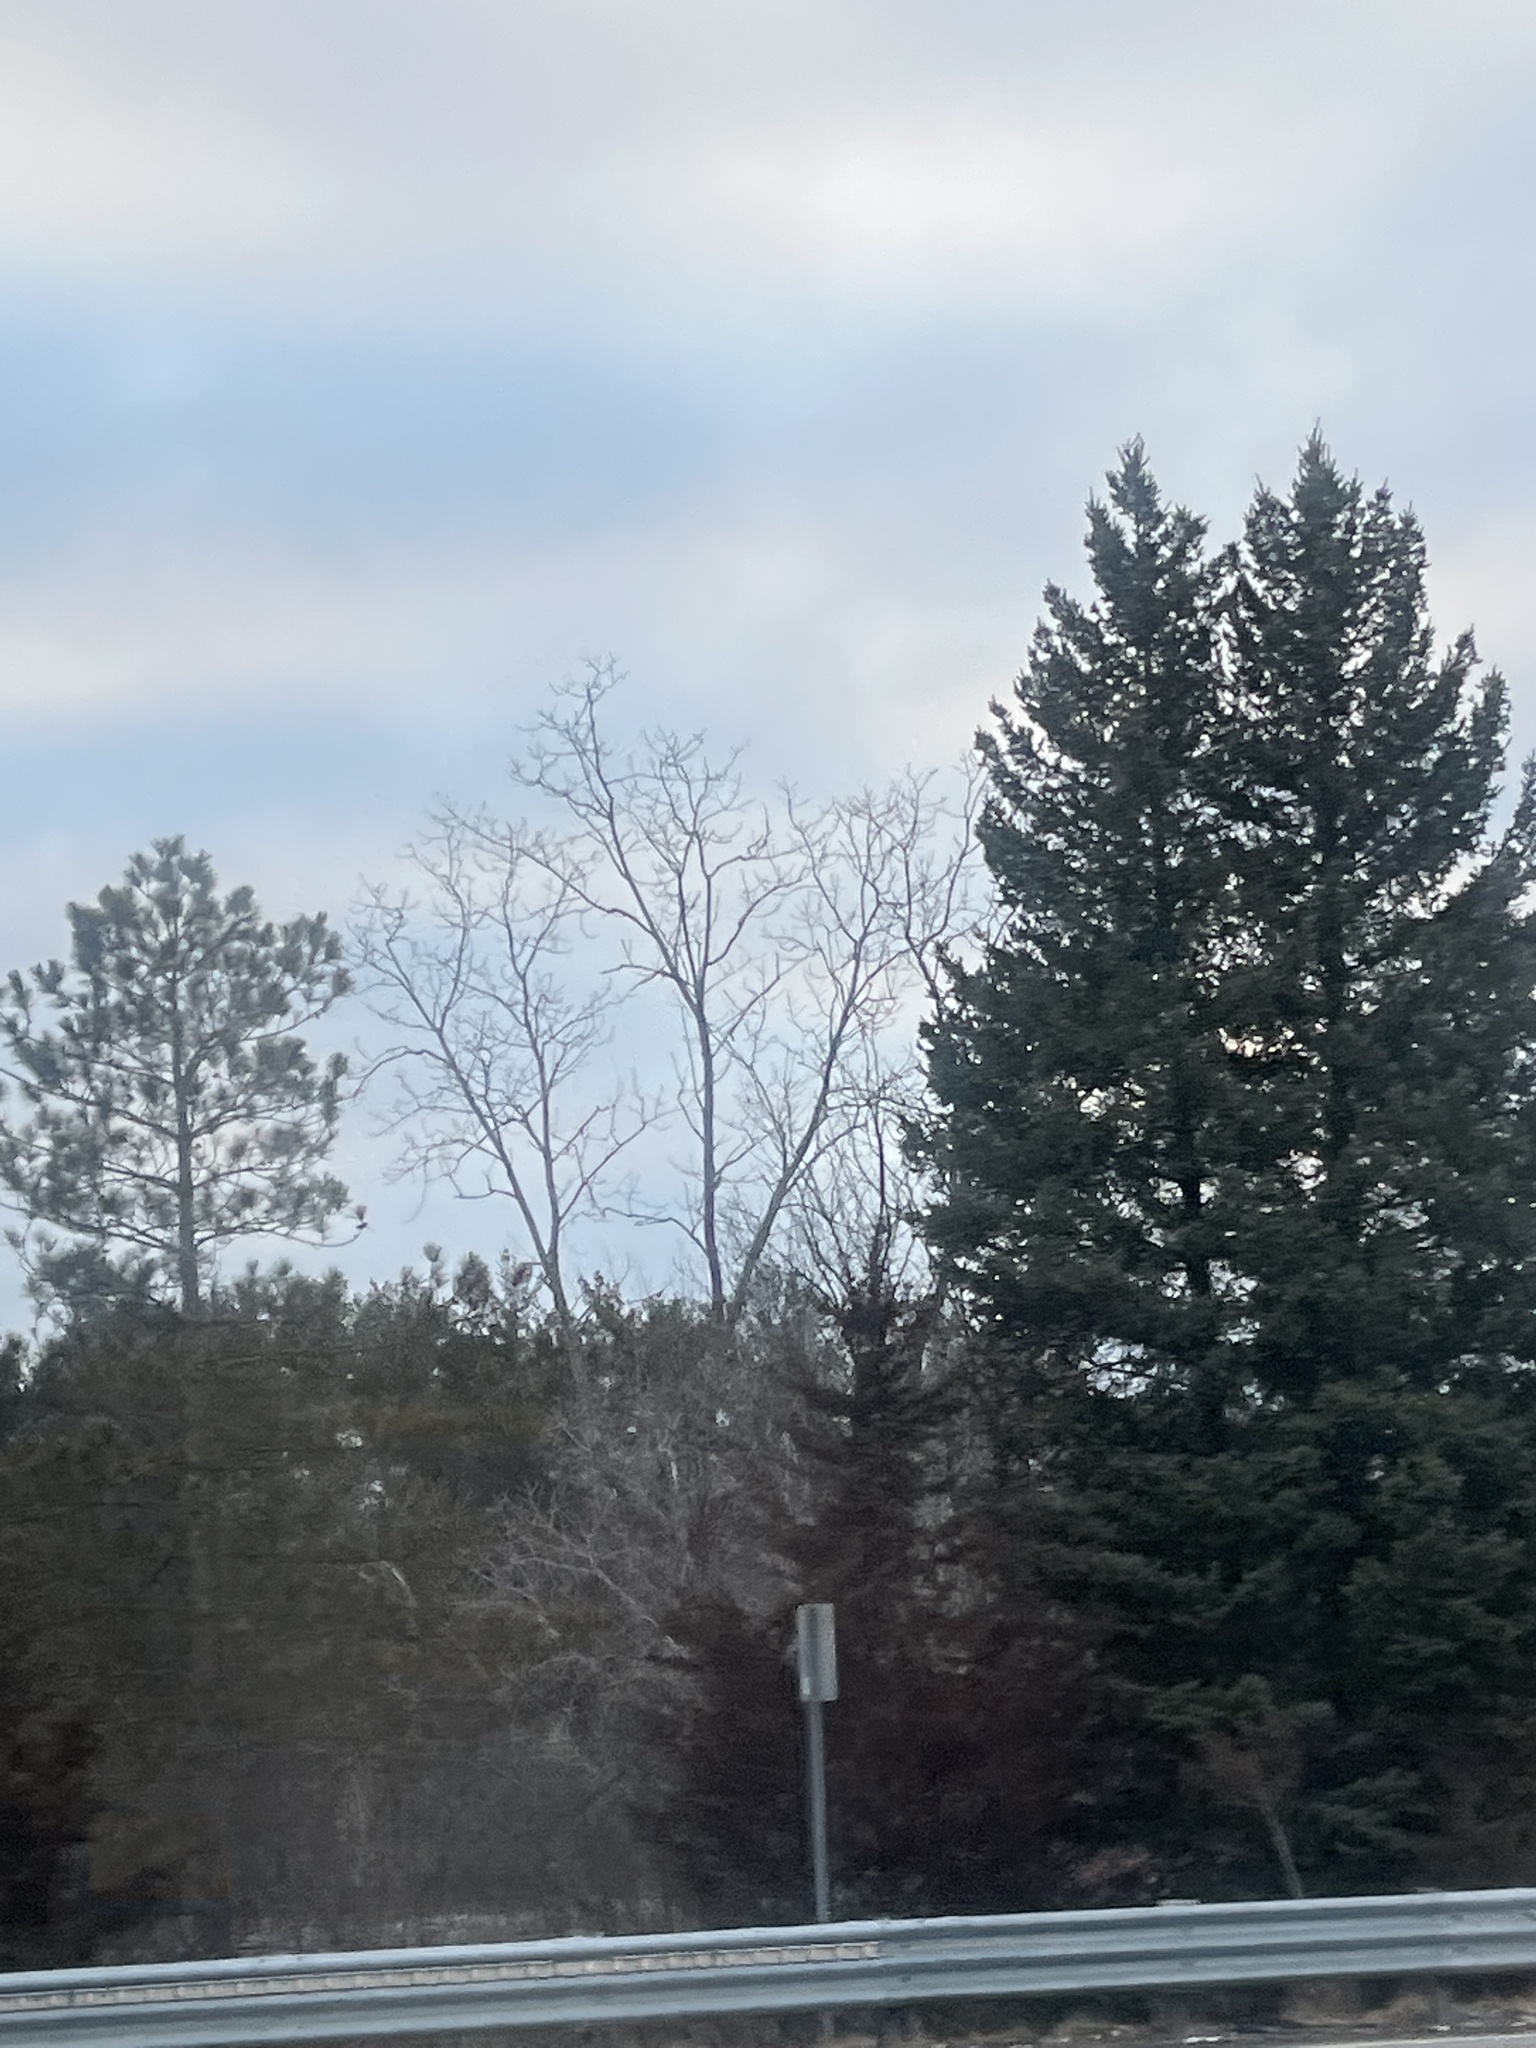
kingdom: Plantae
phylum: Tracheophyta
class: Pinopsida
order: Pinales
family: Pinaceae
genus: Picea
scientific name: Picea pungens
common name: Colorado spruce
